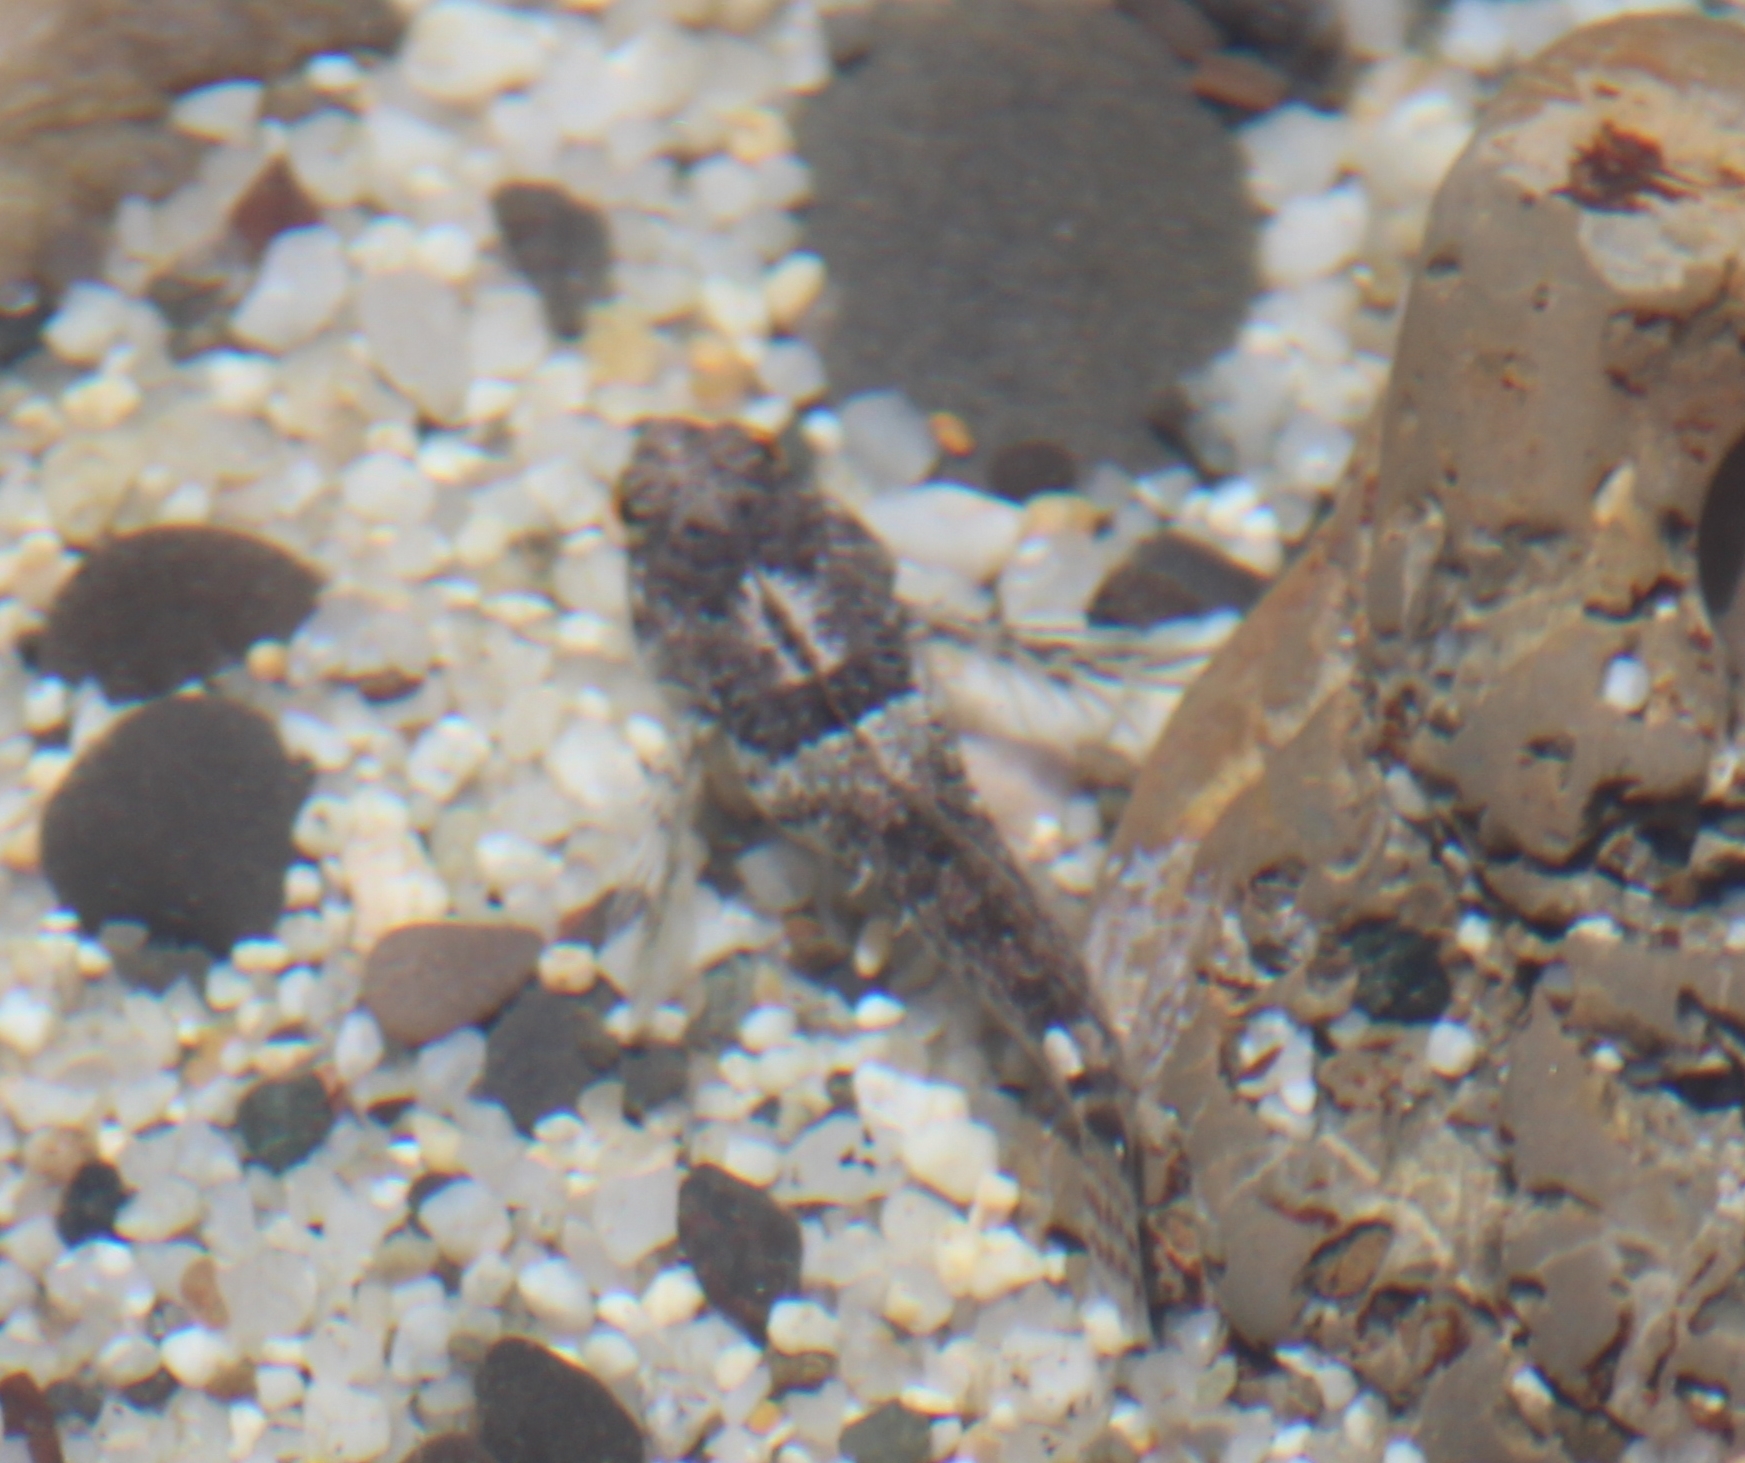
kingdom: Animalia
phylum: Chordata
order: Scorpaeniformes
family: Cottidae
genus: Clinocottus
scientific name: Clinocottus analis
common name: Woolly sculpin
